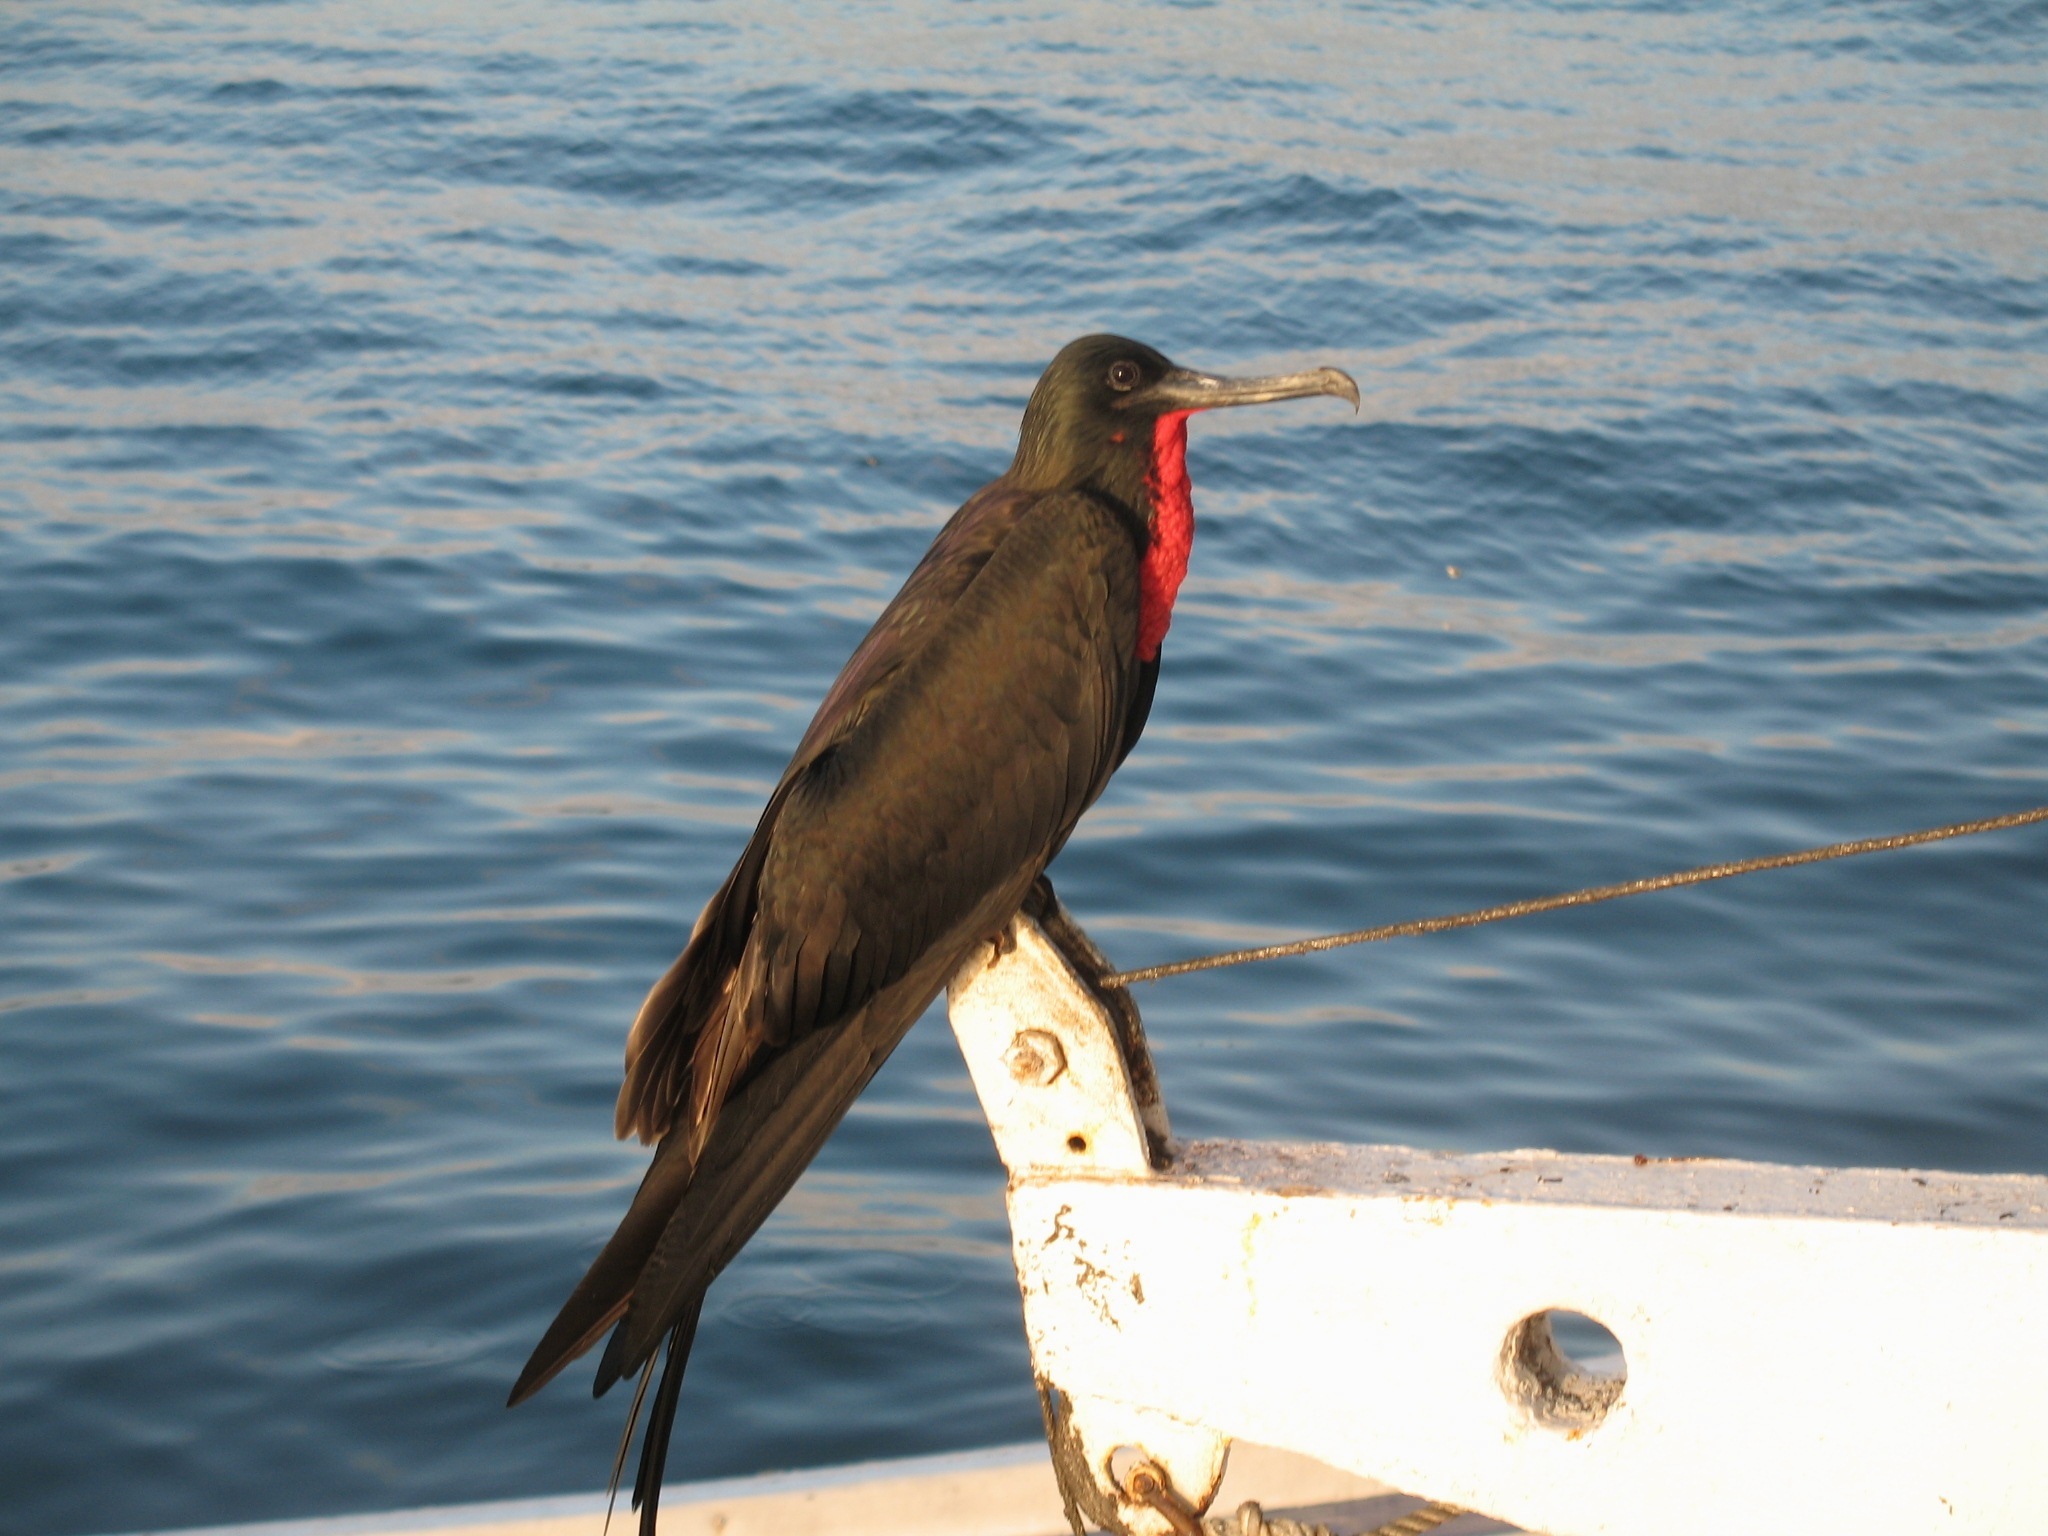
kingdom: Animalia
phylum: Chordata
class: Aves
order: Suliformes
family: Fregatidae
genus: Fregata
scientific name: Fregata magnificens
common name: Magnificent frigatebird
